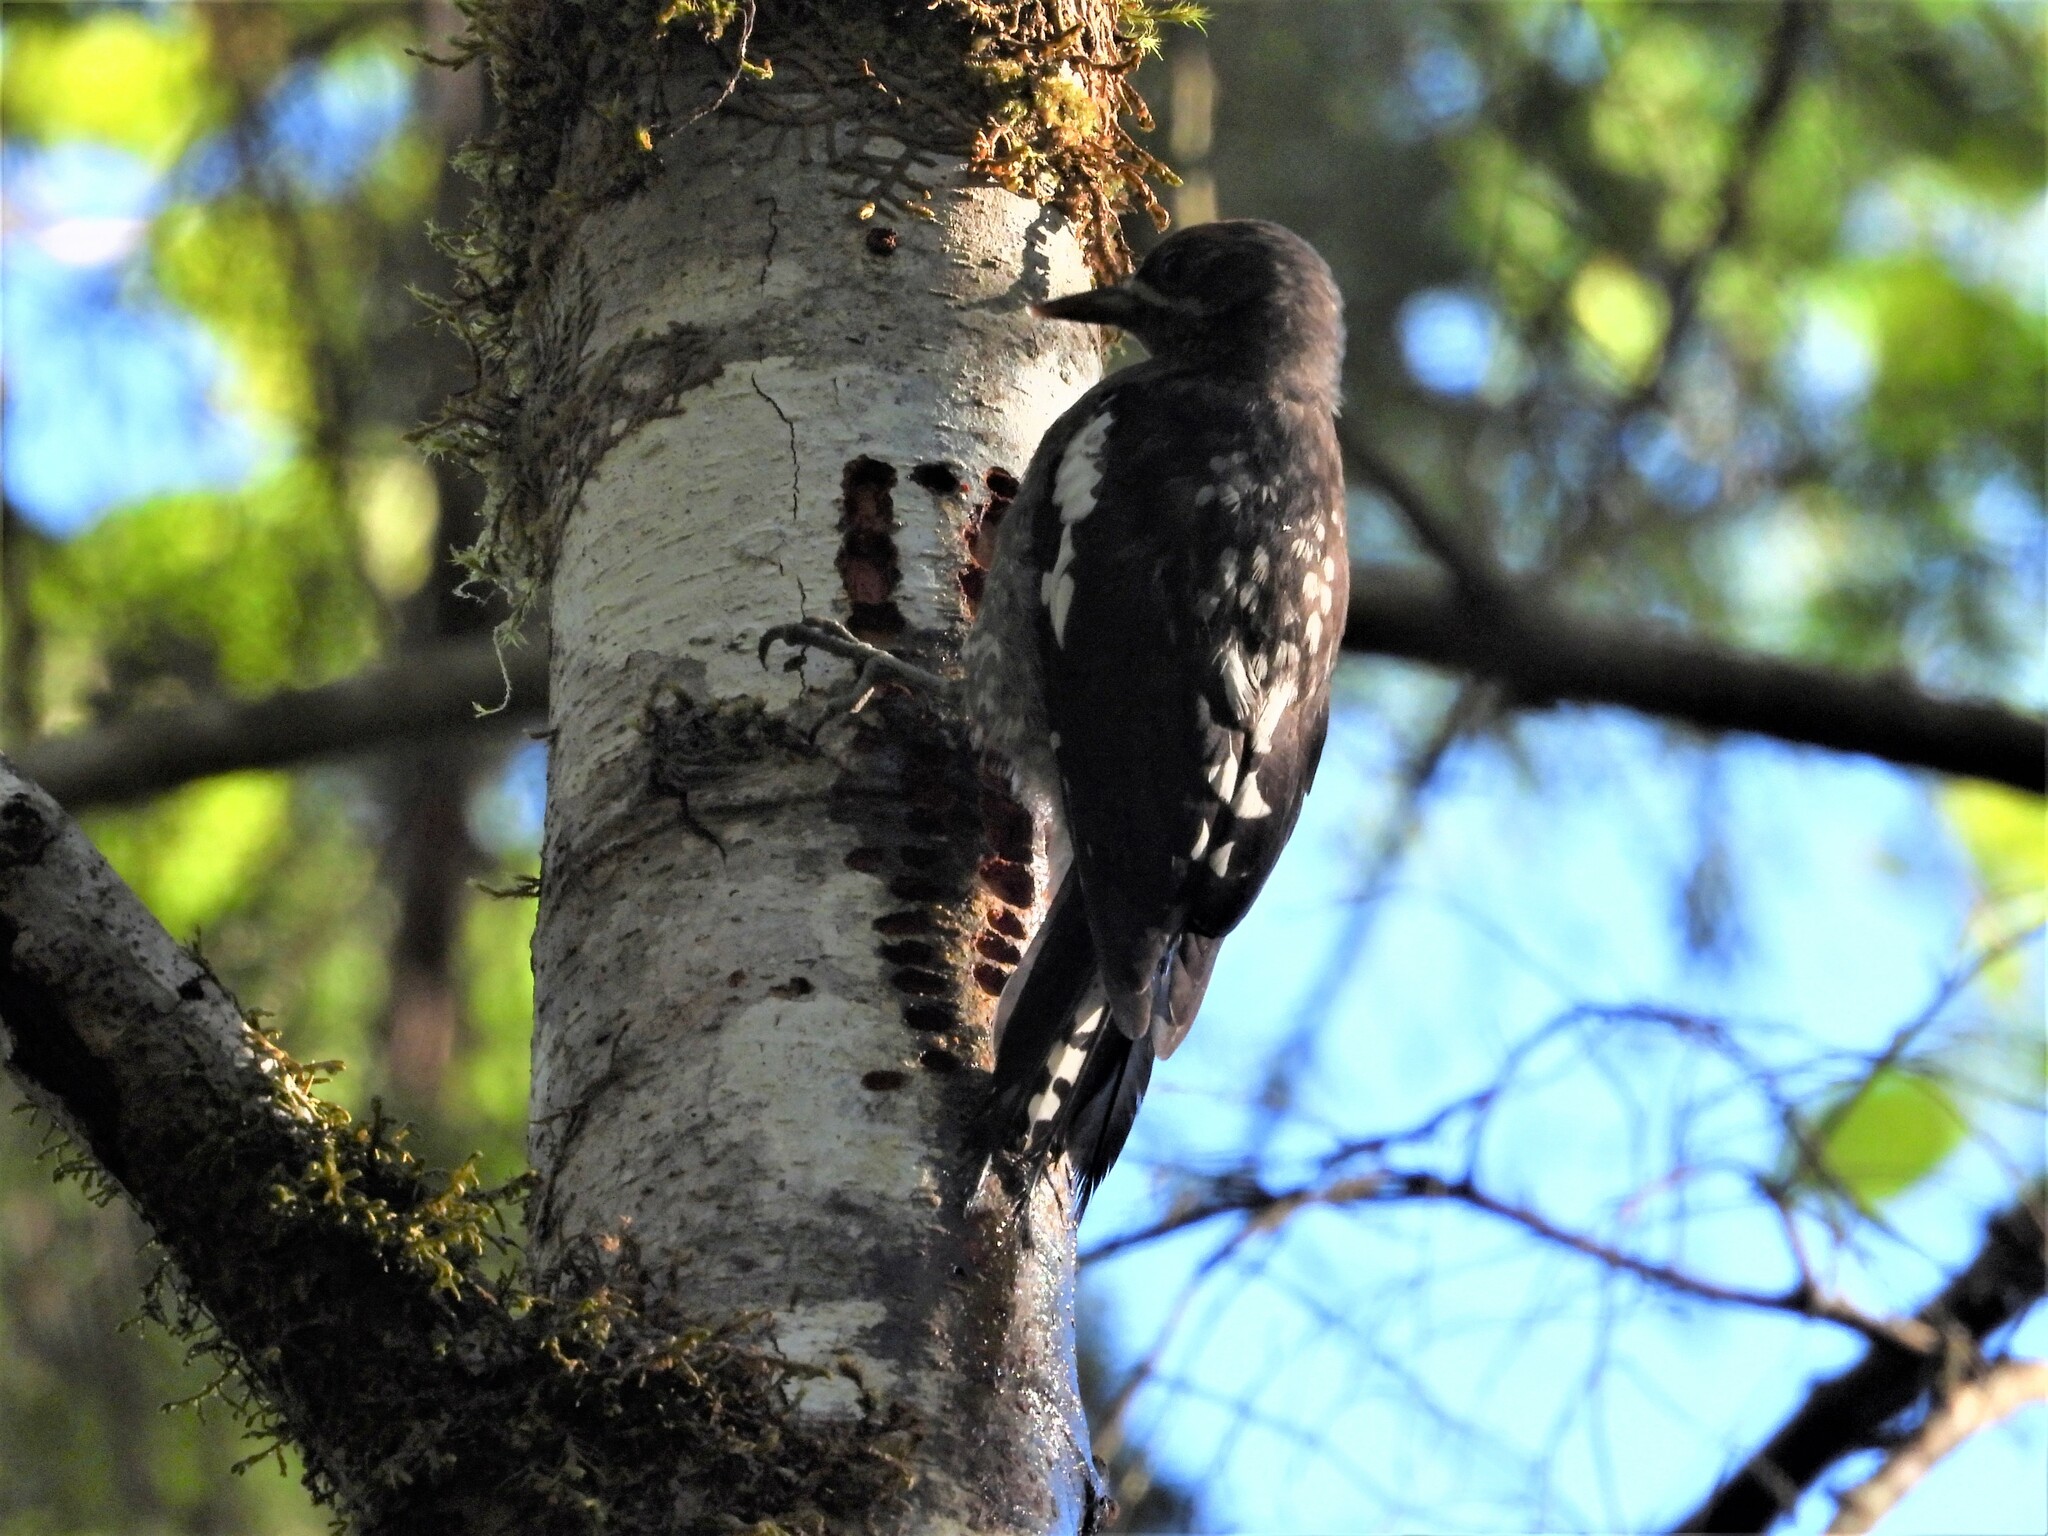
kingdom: Animalia
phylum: Chordata
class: Aves
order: Piciformes
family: Picidae
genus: Sphyrapicus
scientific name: Sphyrapicus ruber
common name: Red-breasted sapsucker
